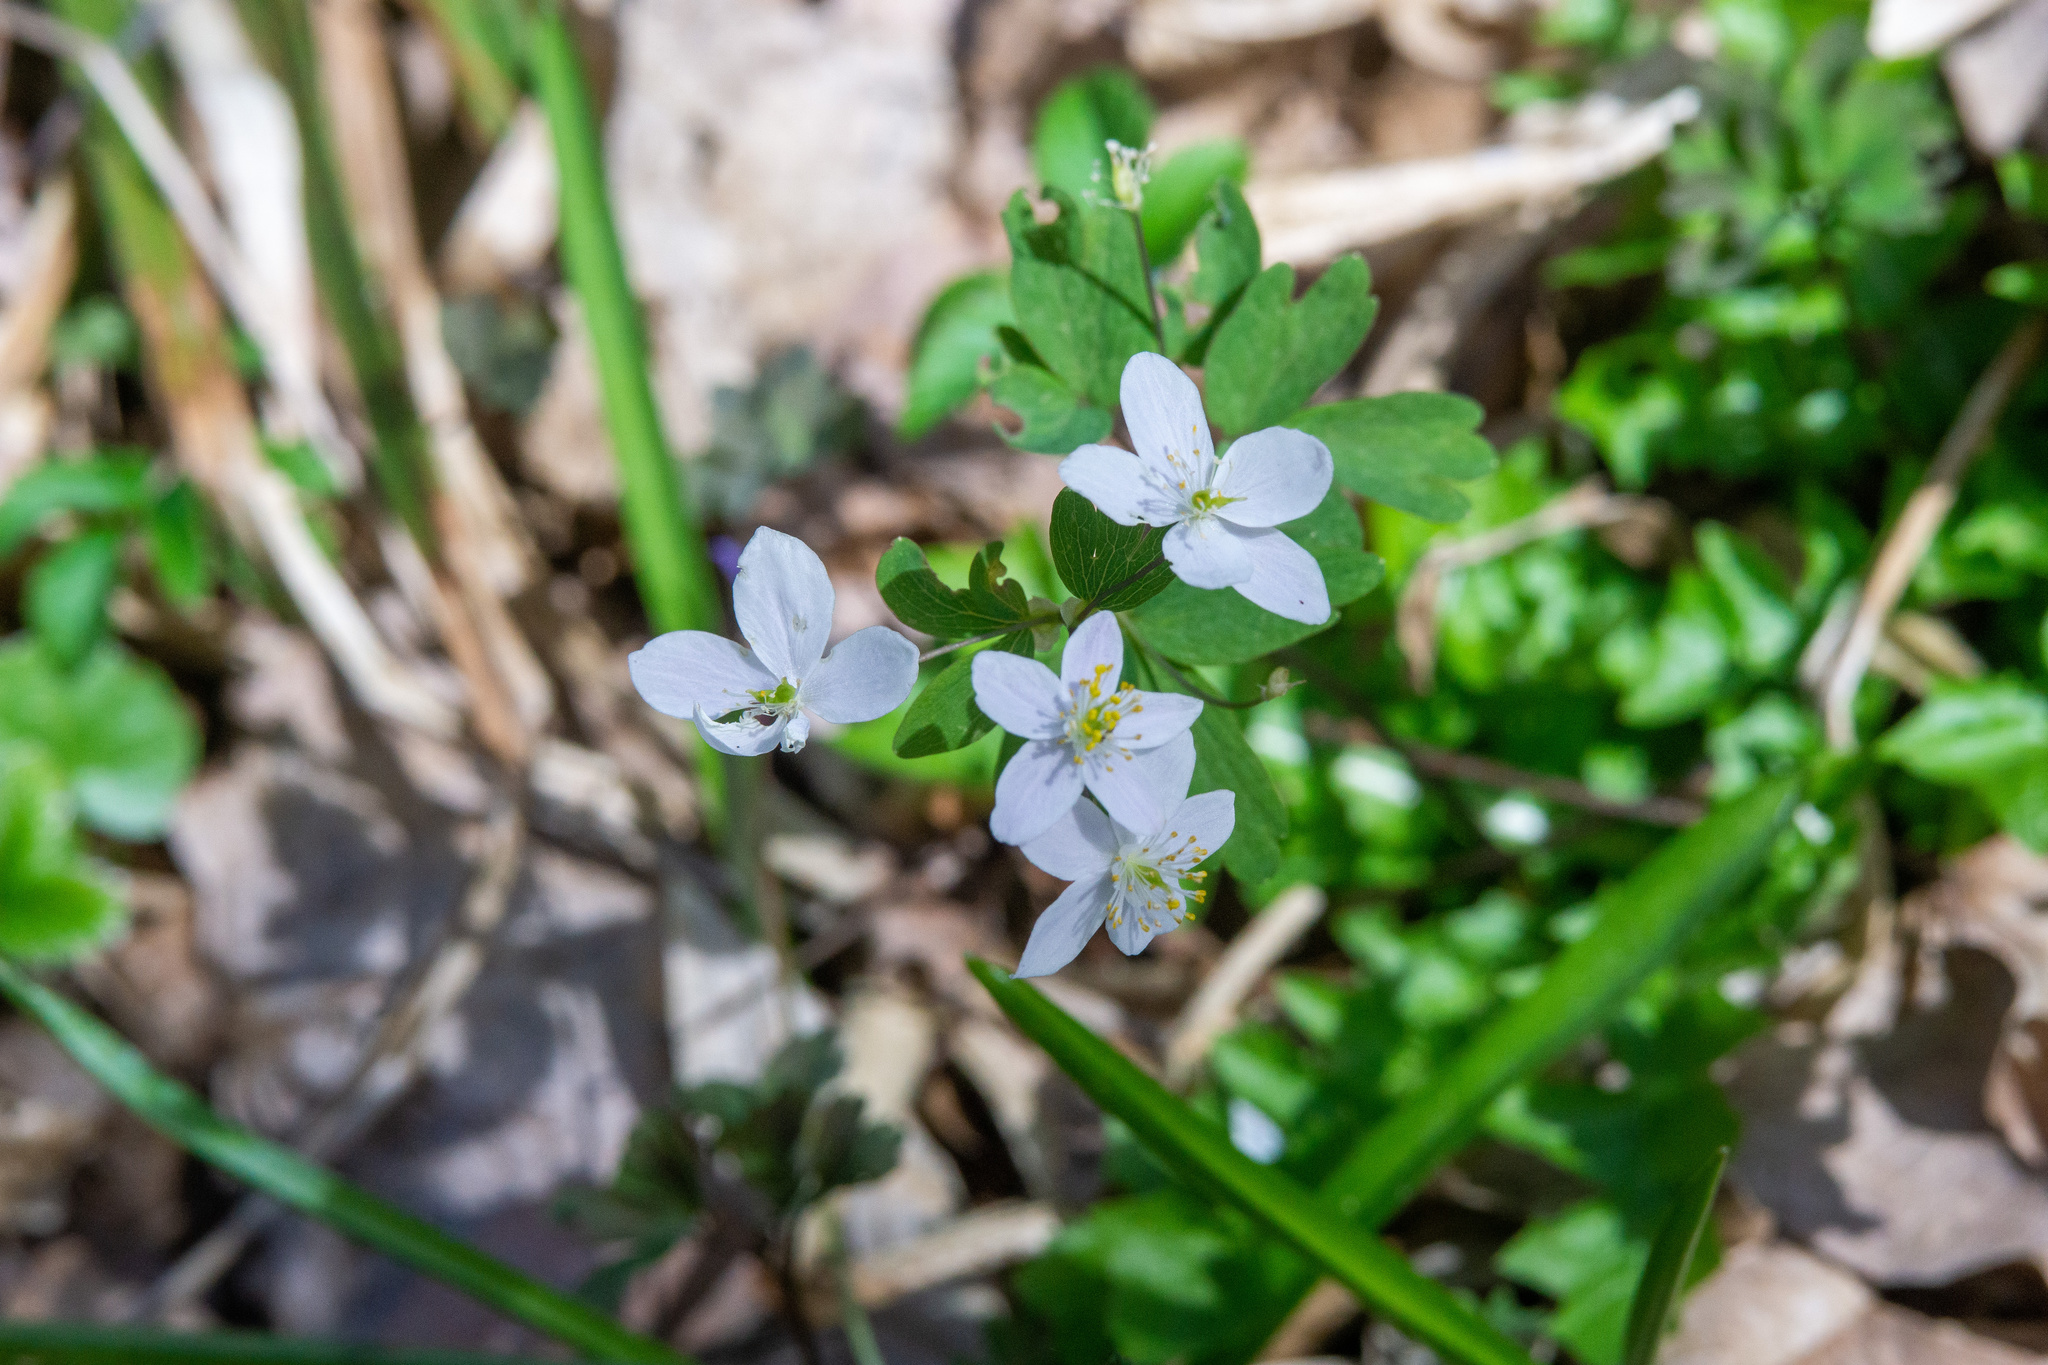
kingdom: Plantae
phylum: Tracheophyta
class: Magnoliopsida
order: Ranunculales
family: Ranunculaceae
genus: Isopyrum
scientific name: Isopyrum thalictroides
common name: Isopyrum
